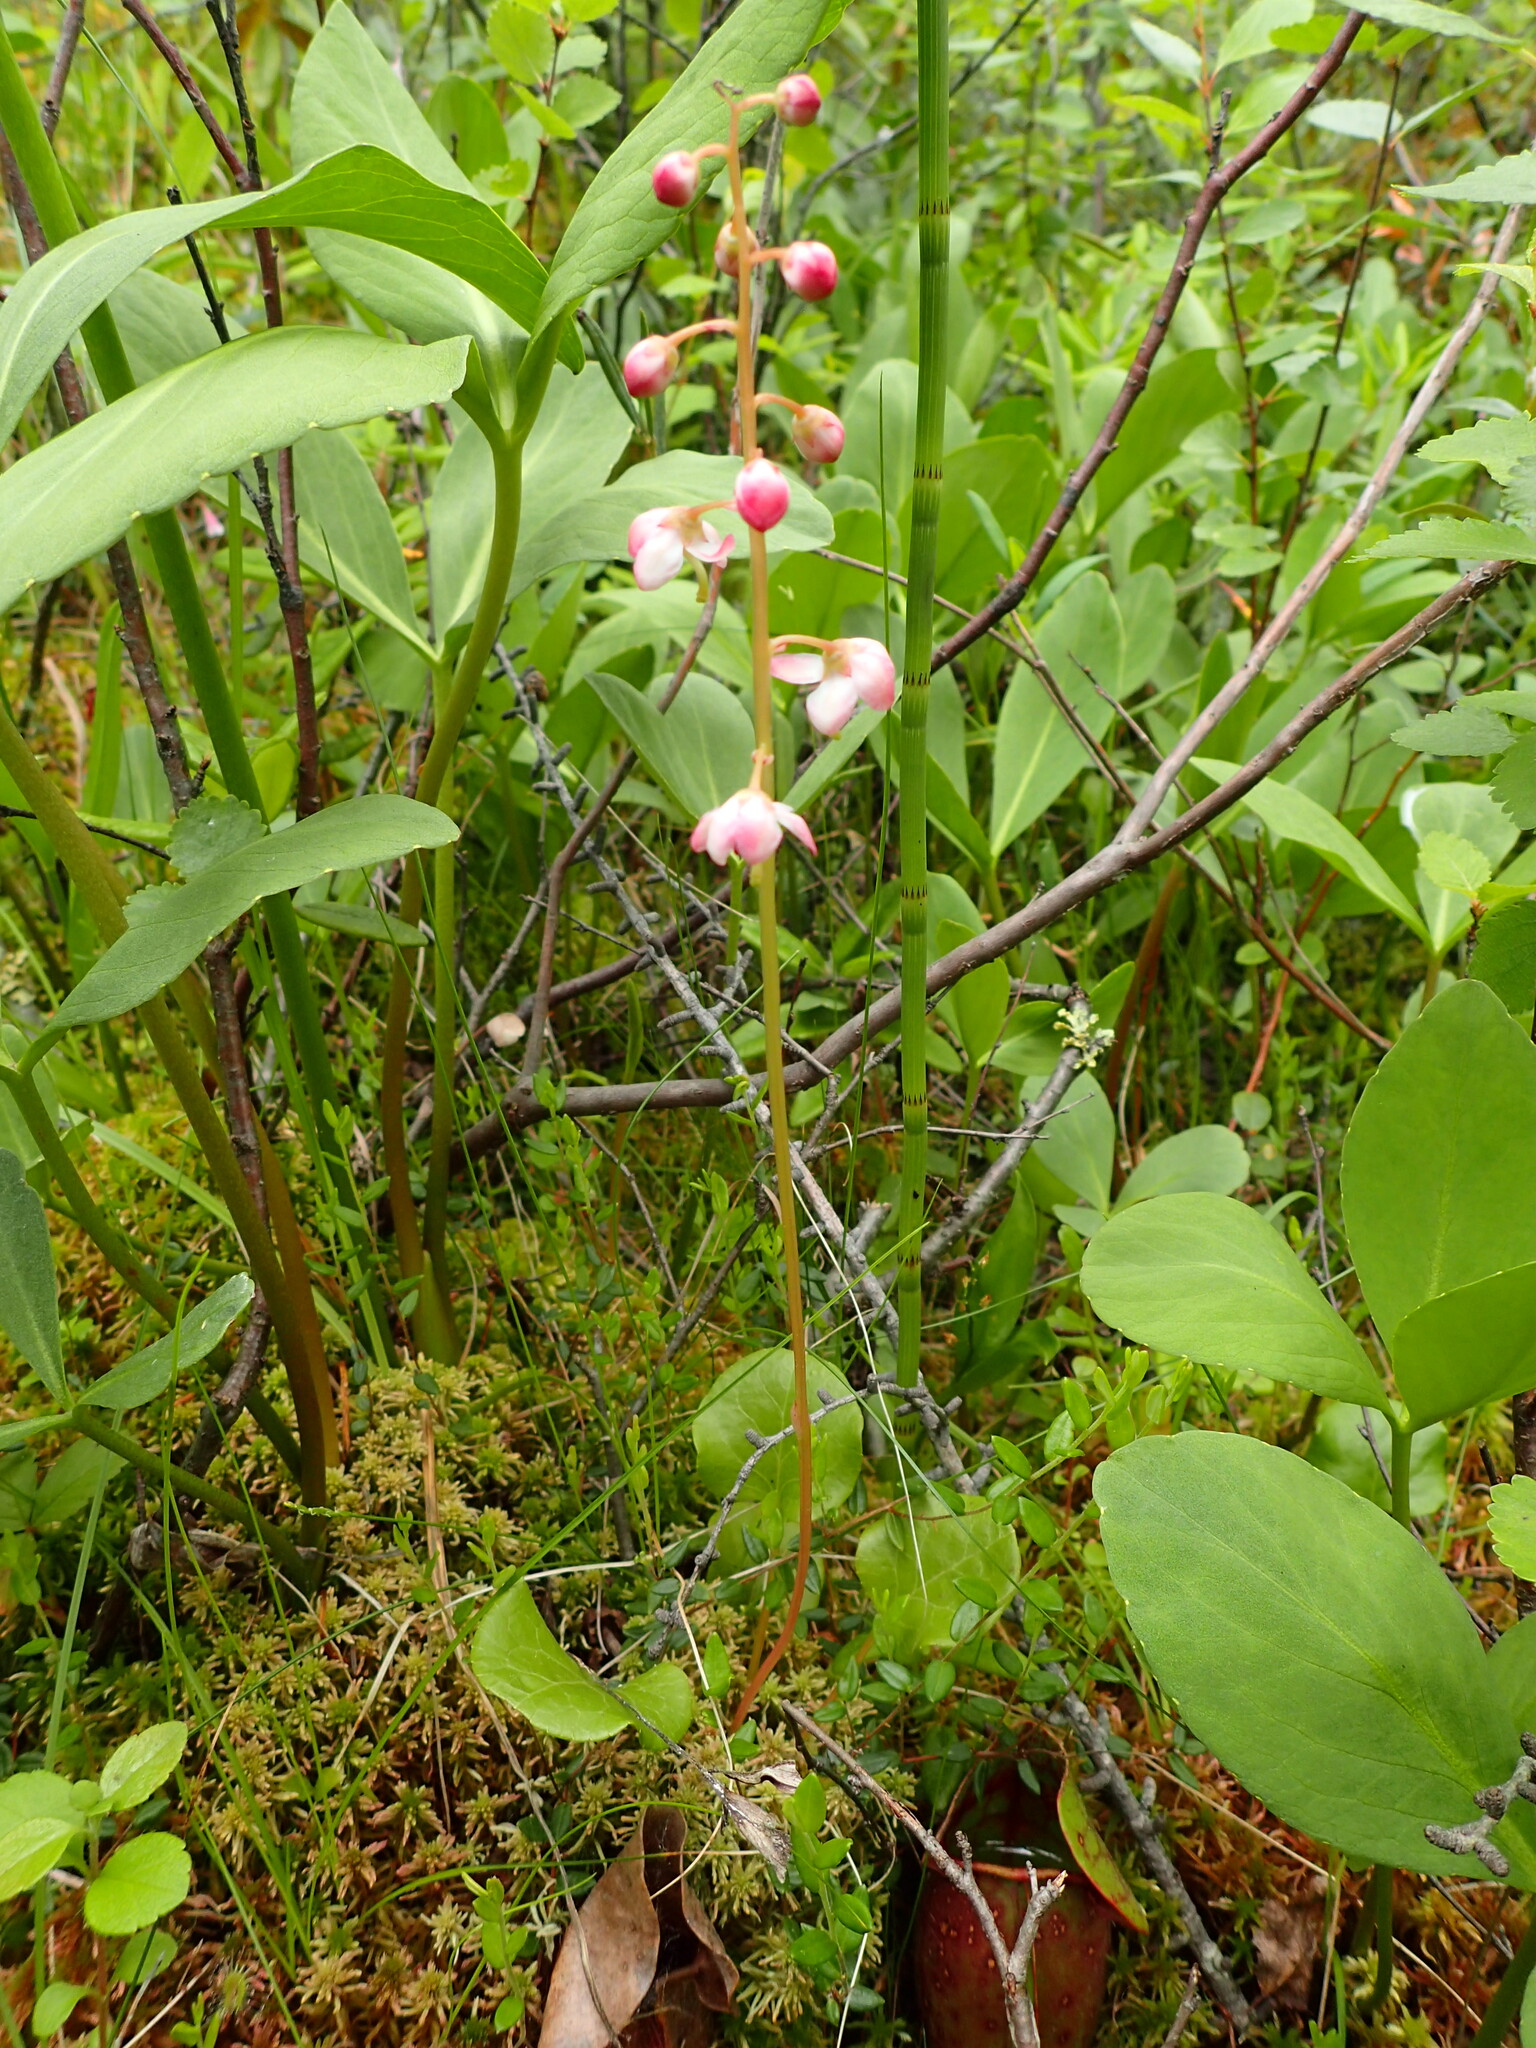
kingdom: Plantae
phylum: Tracheophyta
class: Magnoliopsida
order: Ericales
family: Ericaceae
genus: Pyrola
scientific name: Pyrola asarifolia
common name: Bog wintergreen
